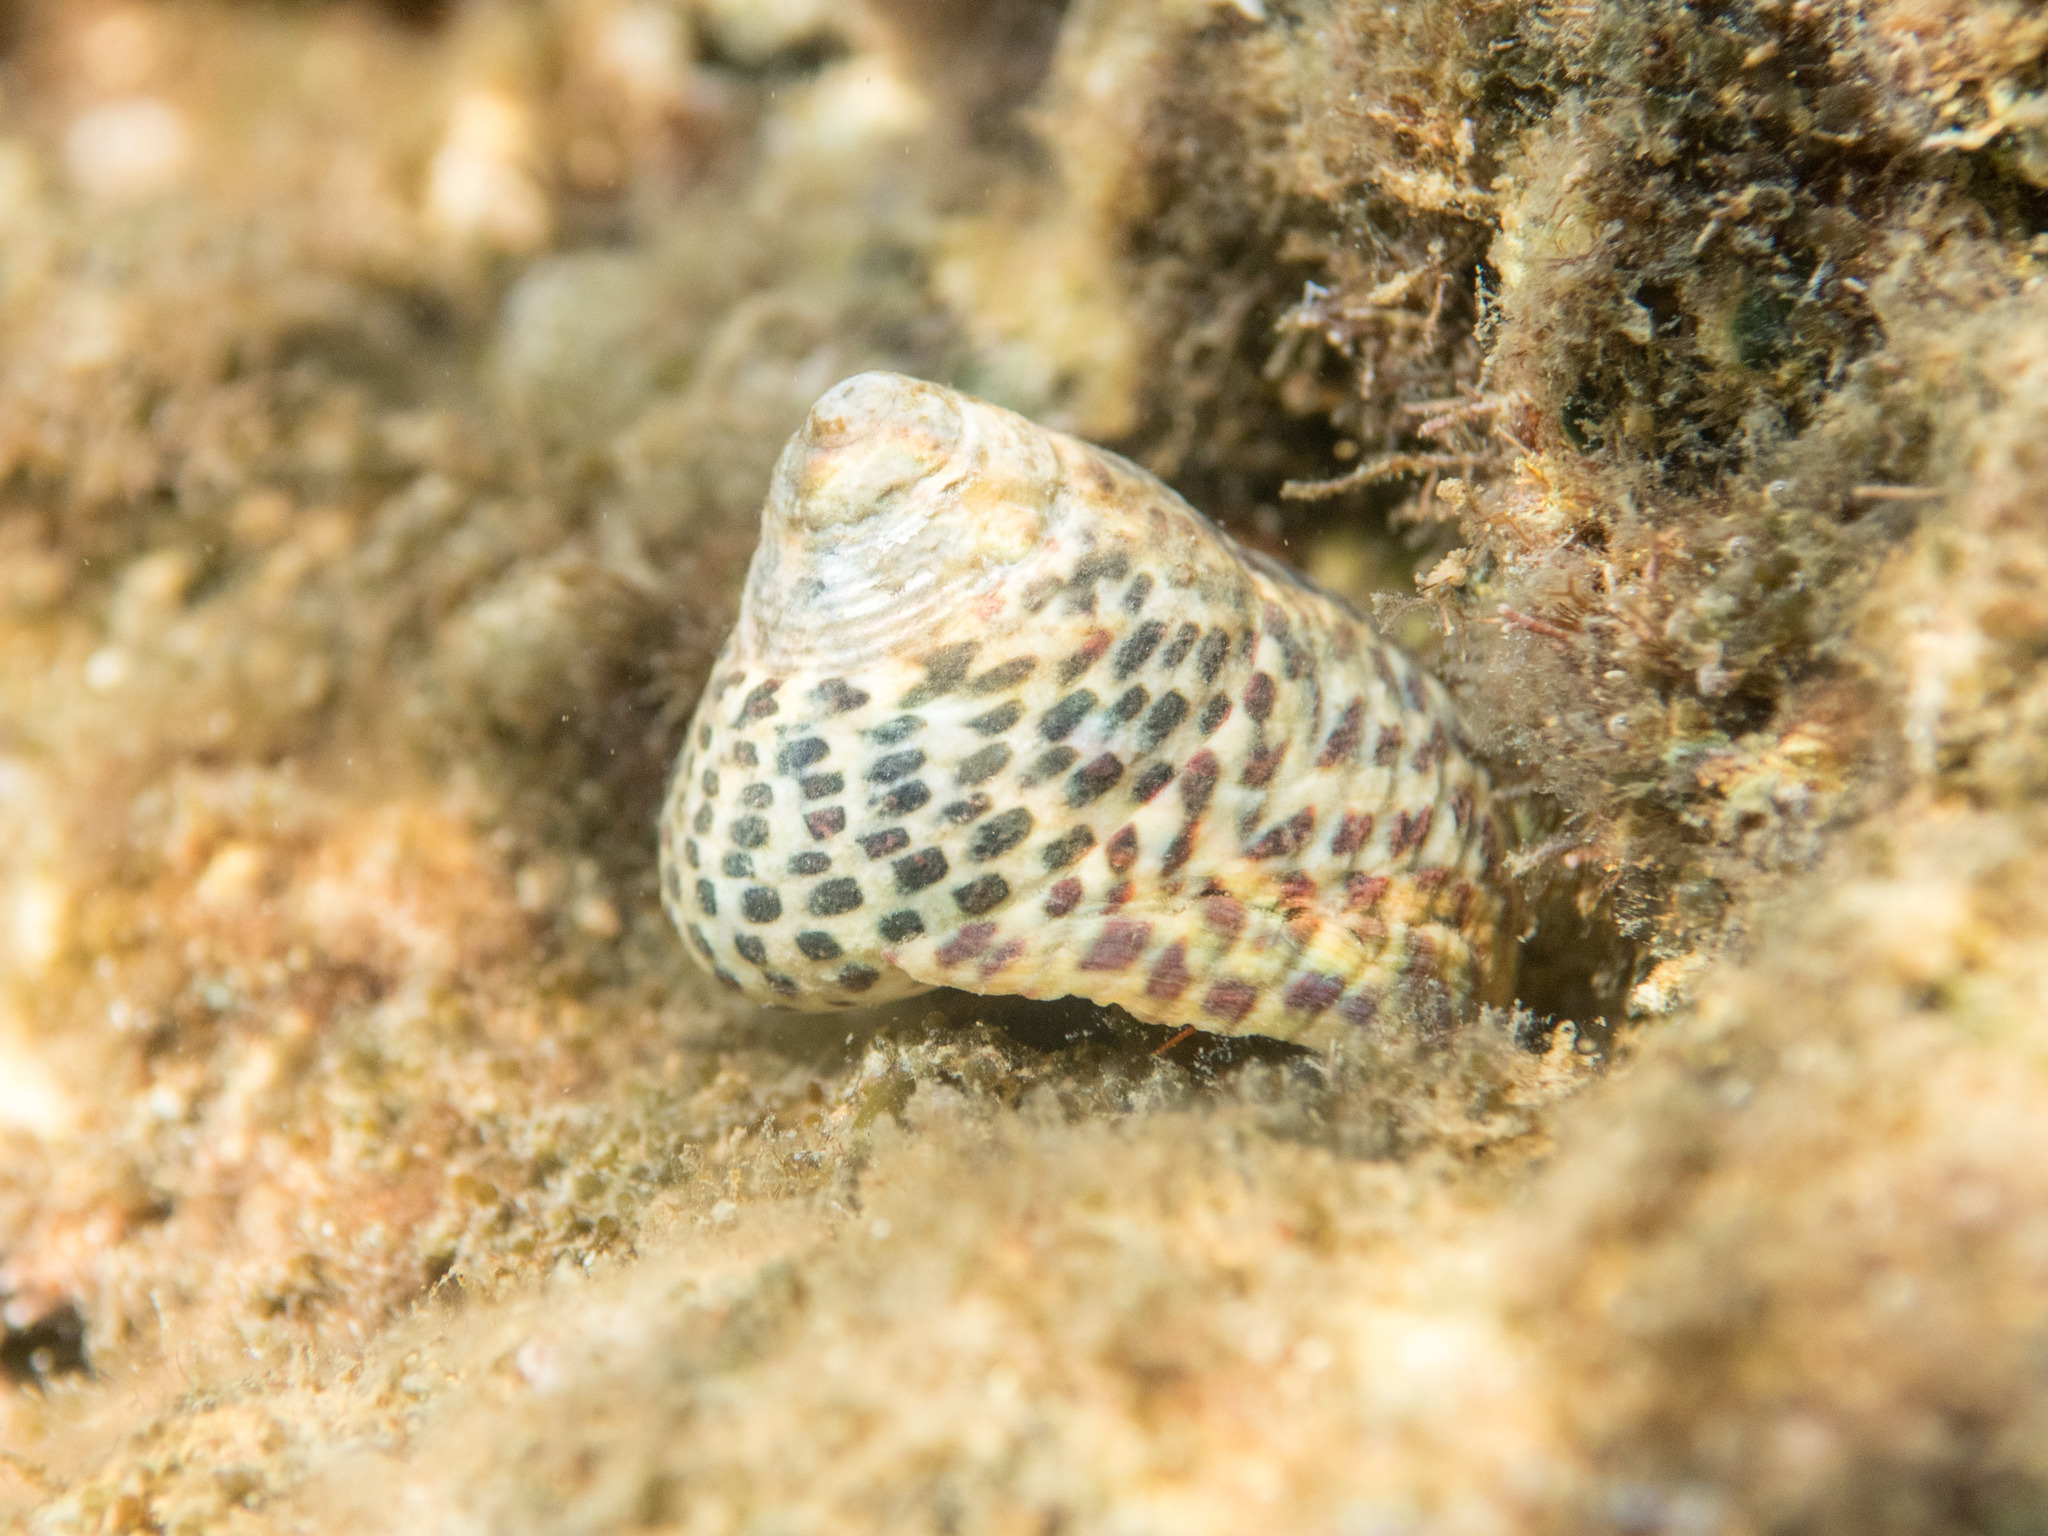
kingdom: Animalia
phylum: Mollusca
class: Gastropoda
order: Trochida
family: Trochidae
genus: Phorcus
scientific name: Phorcus turbinatus
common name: Turbinate monodont
